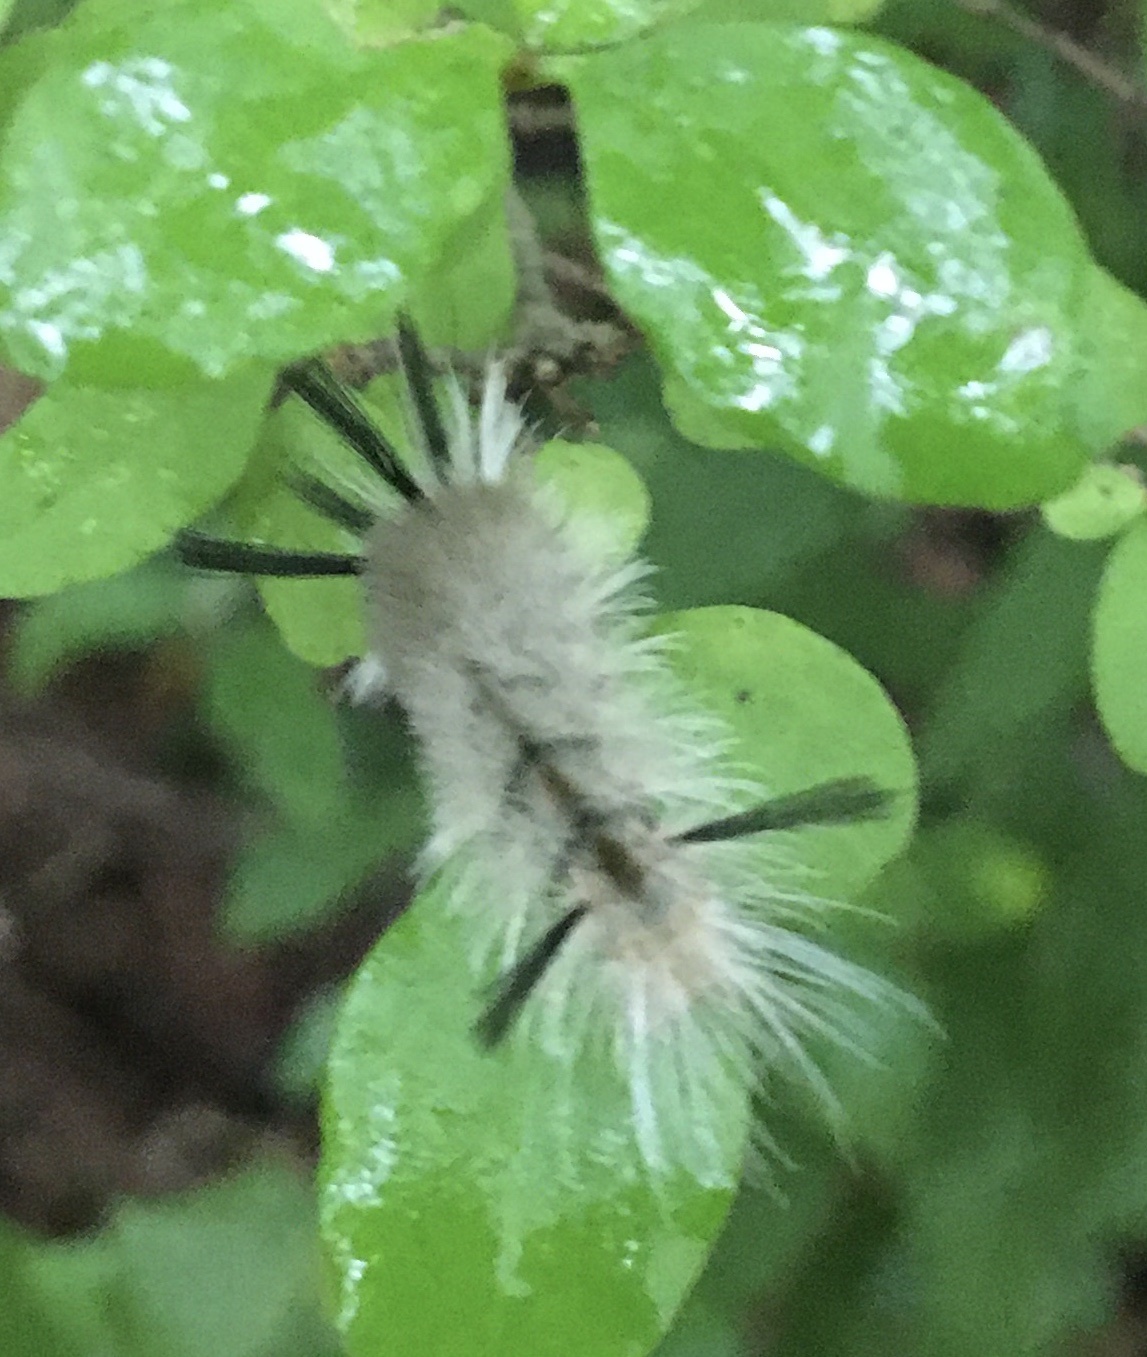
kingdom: Animalia
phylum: Arthropoda
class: Insecta
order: Lepidoptera
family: Erebidae
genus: Halysidota
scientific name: Halysidota tessellaris
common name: Banded tussock moth
